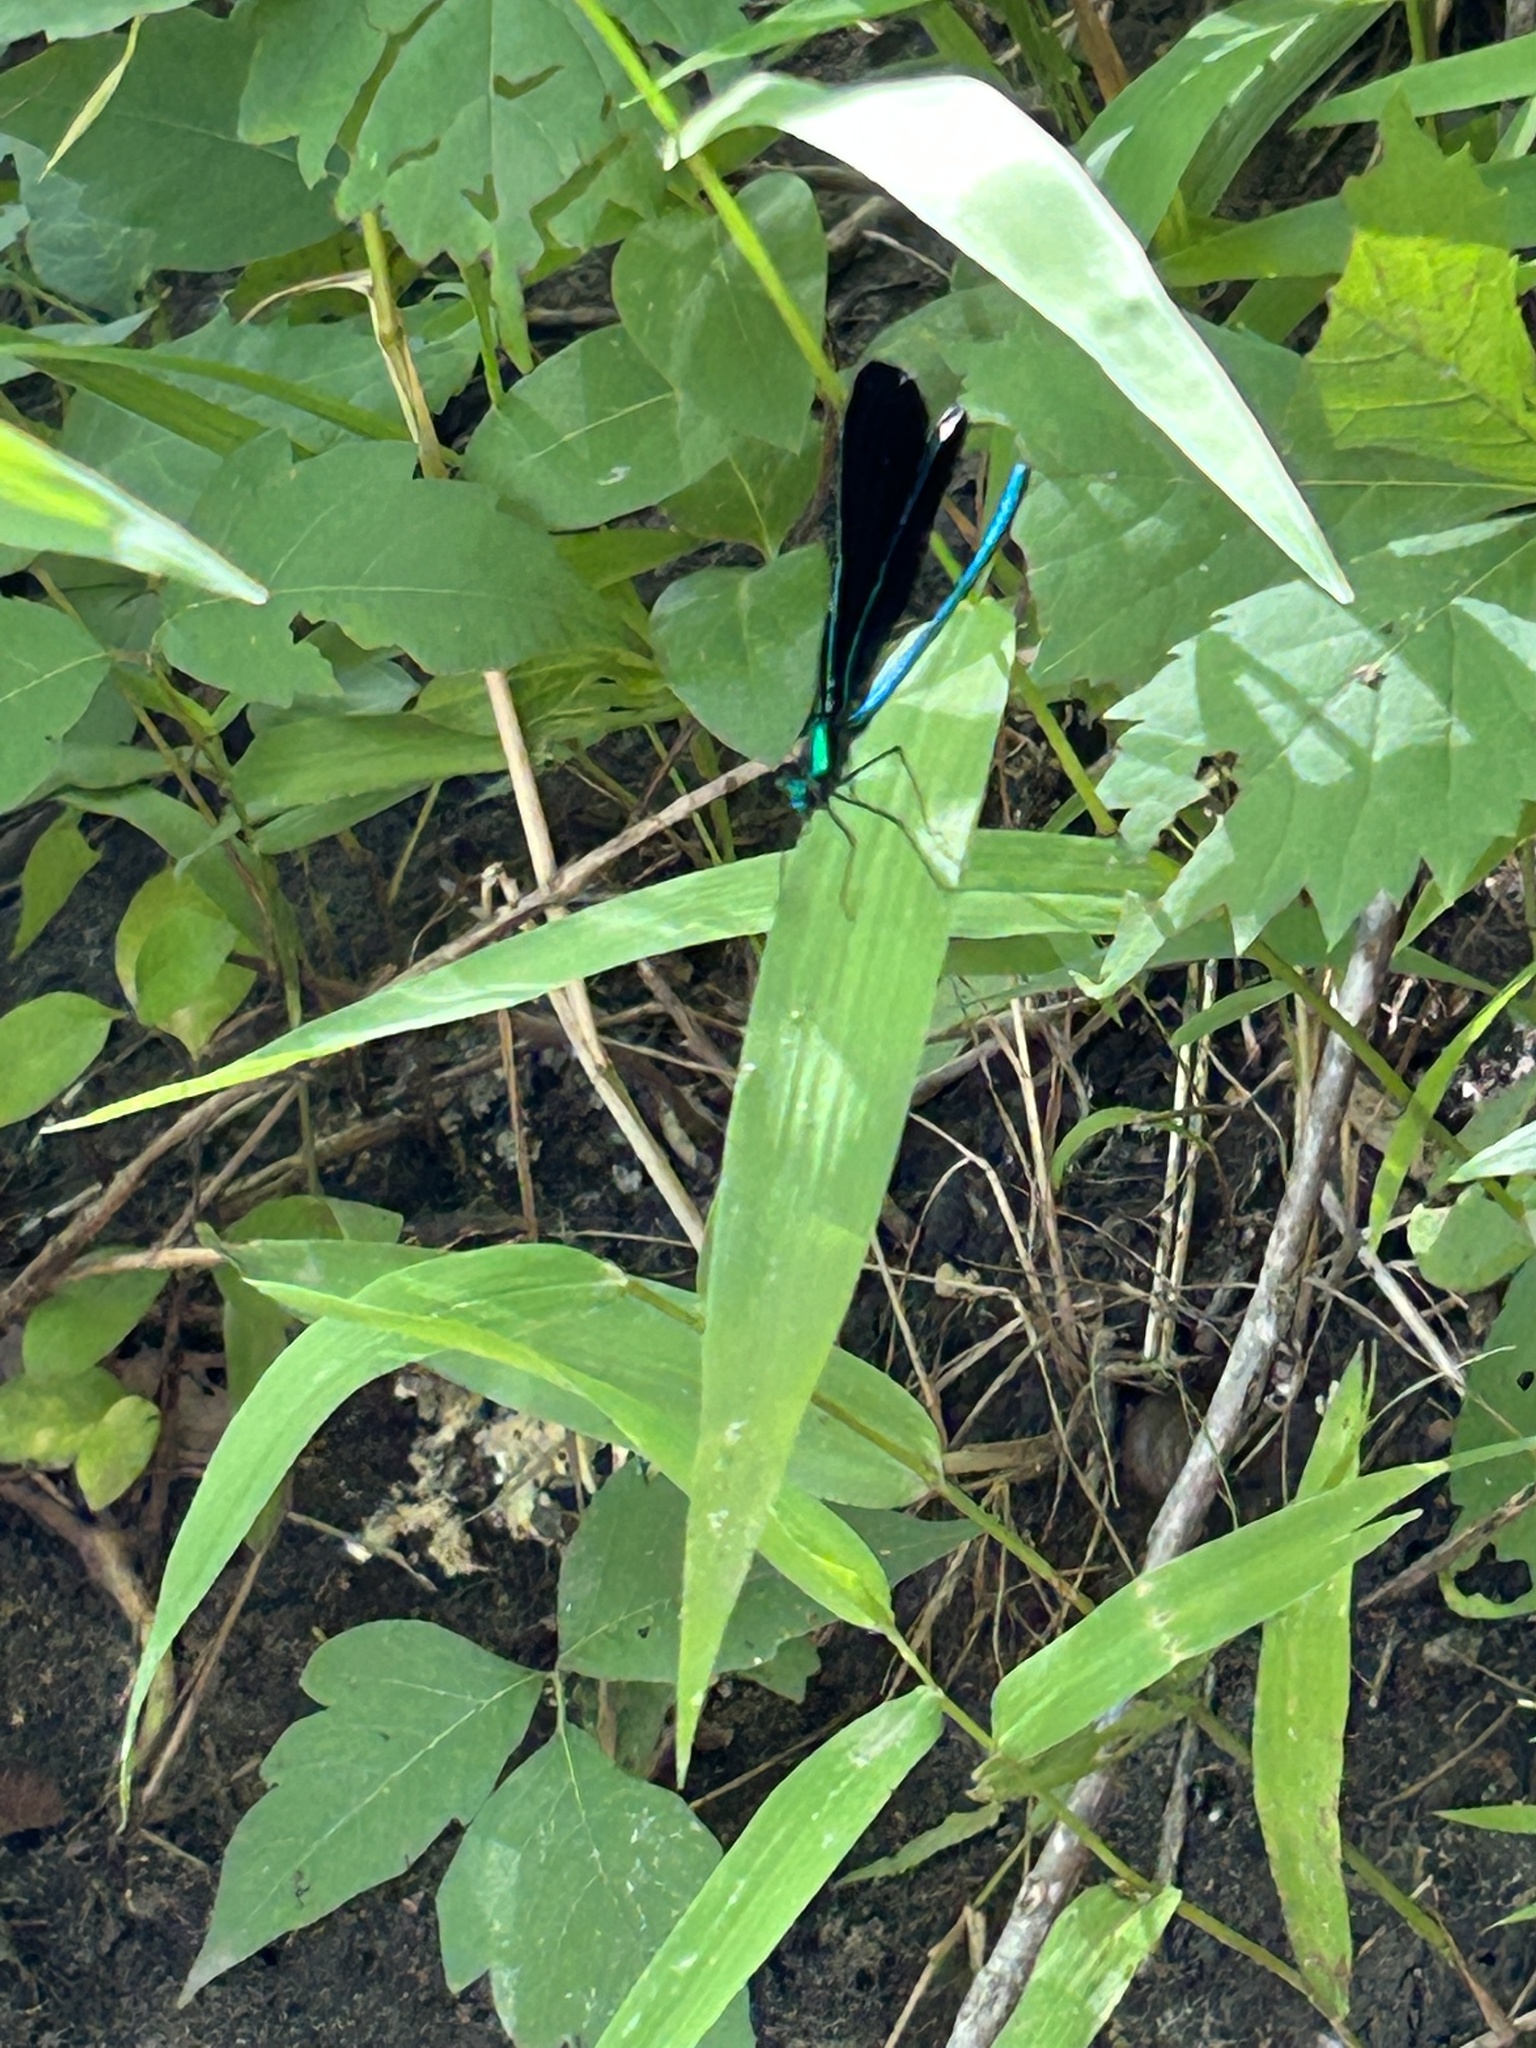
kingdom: Animalia
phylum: Arthropoda
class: Insecta
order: Odonata
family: Calopterygidae
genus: Calopteryx
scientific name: Calopteryx maculata
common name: Ebony jewelwing
